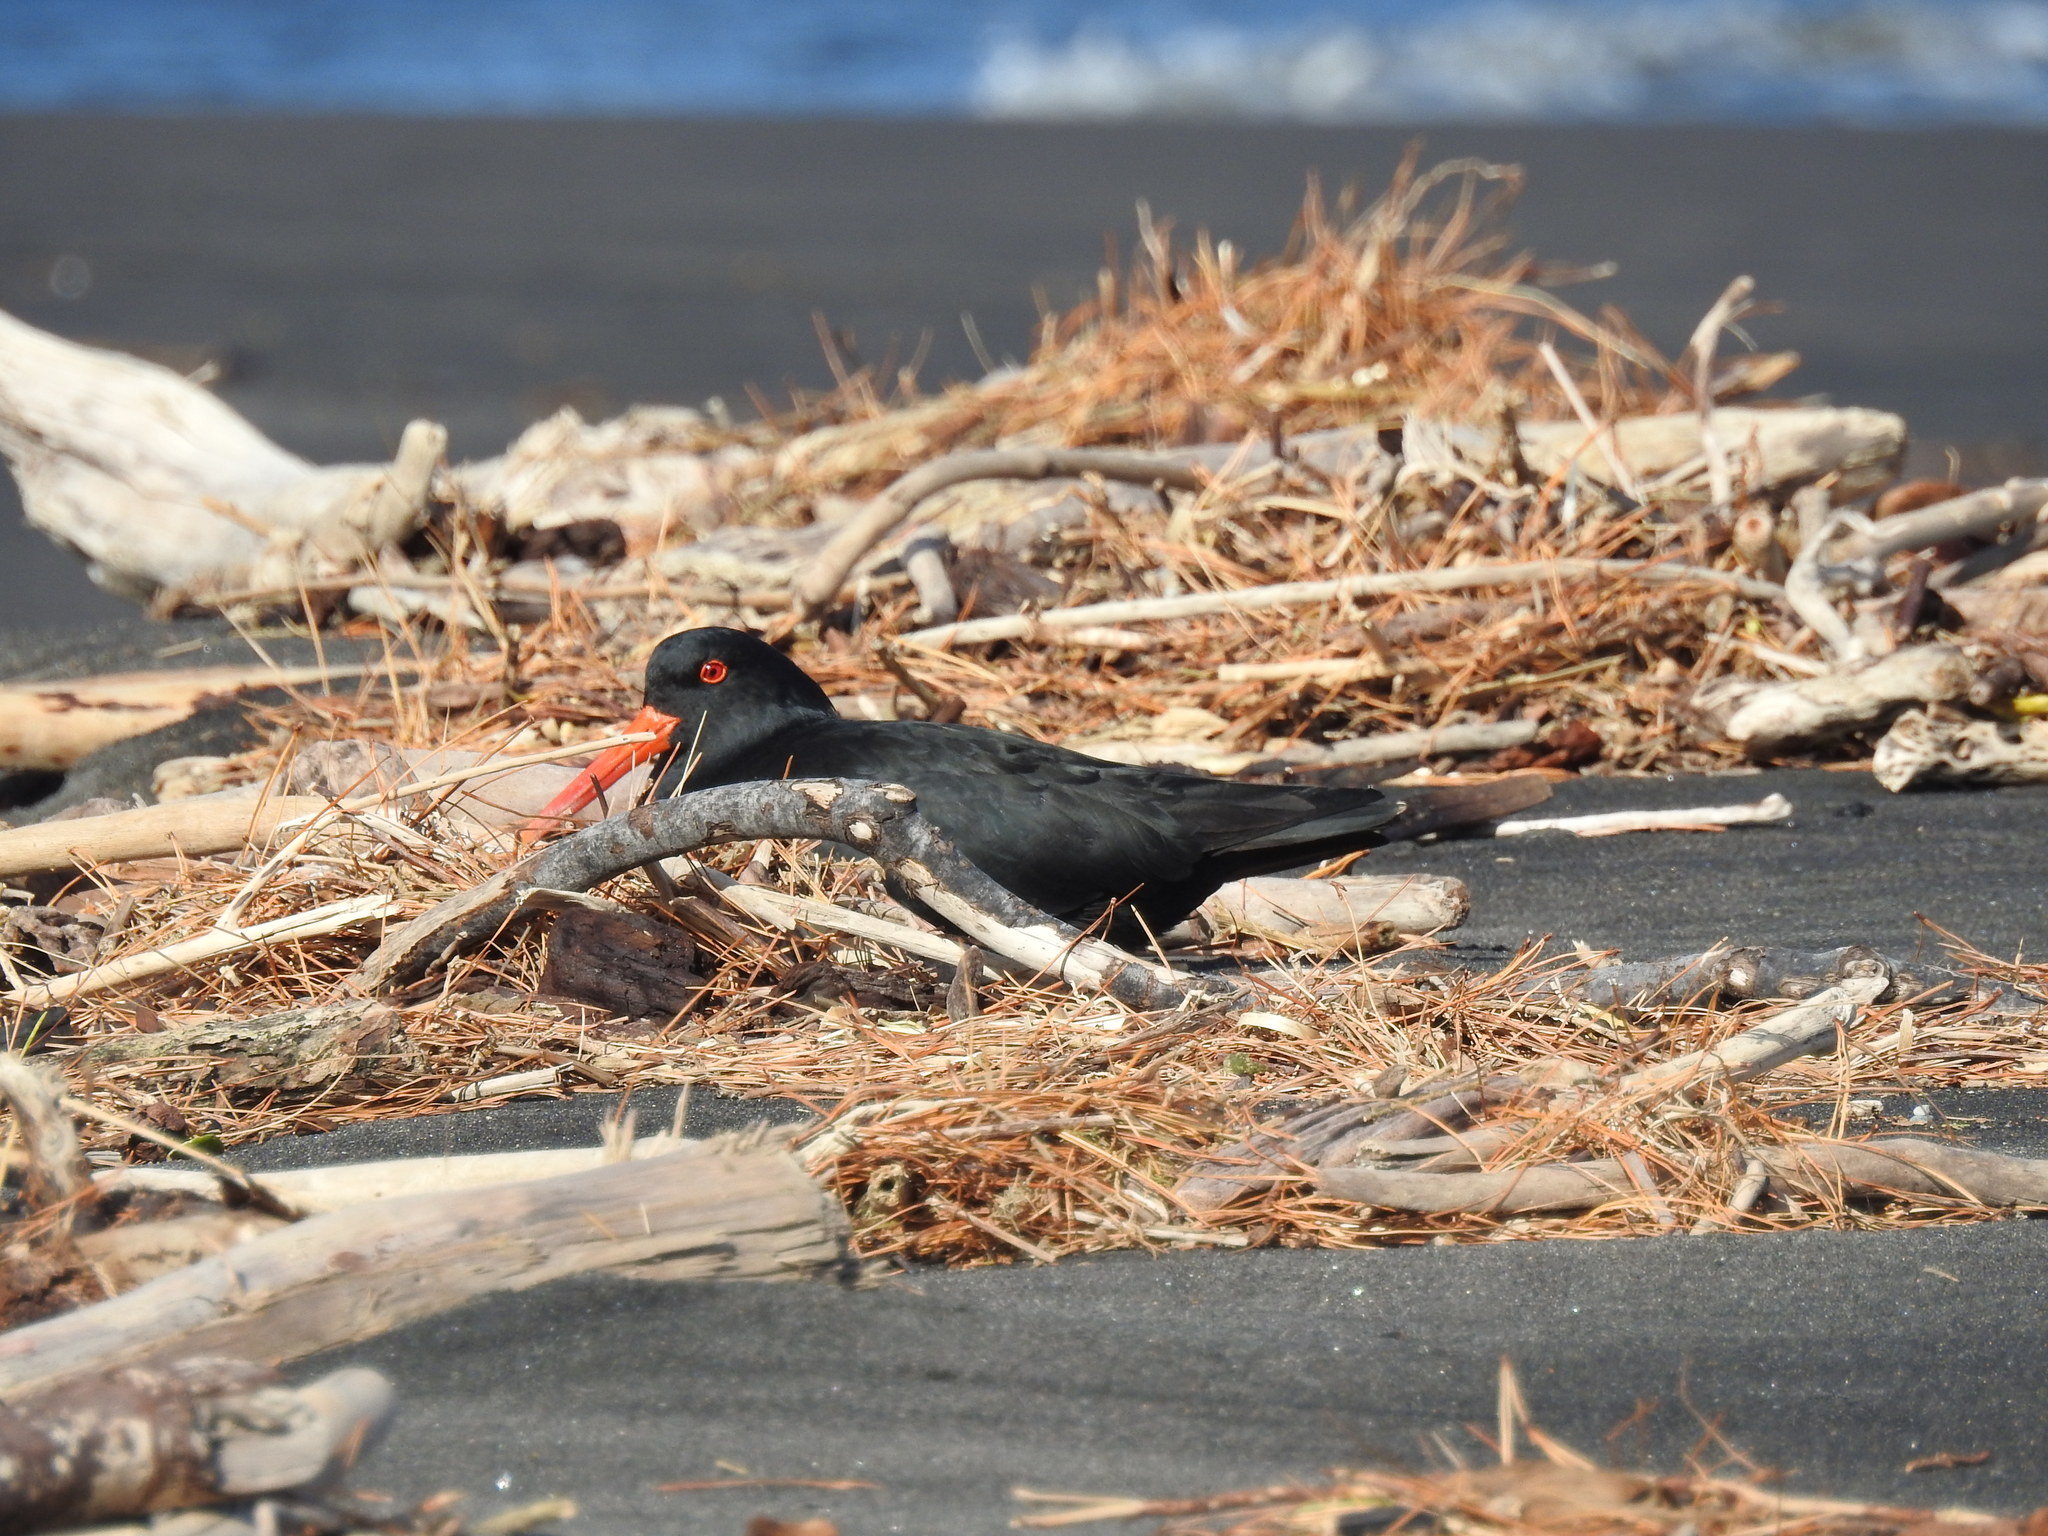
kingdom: Animalia
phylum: Chordata
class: Aves
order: Charadriiformes
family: Haematopodidae
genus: Haematopus
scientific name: Haematopus unicolor
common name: Variable oystercatcher
